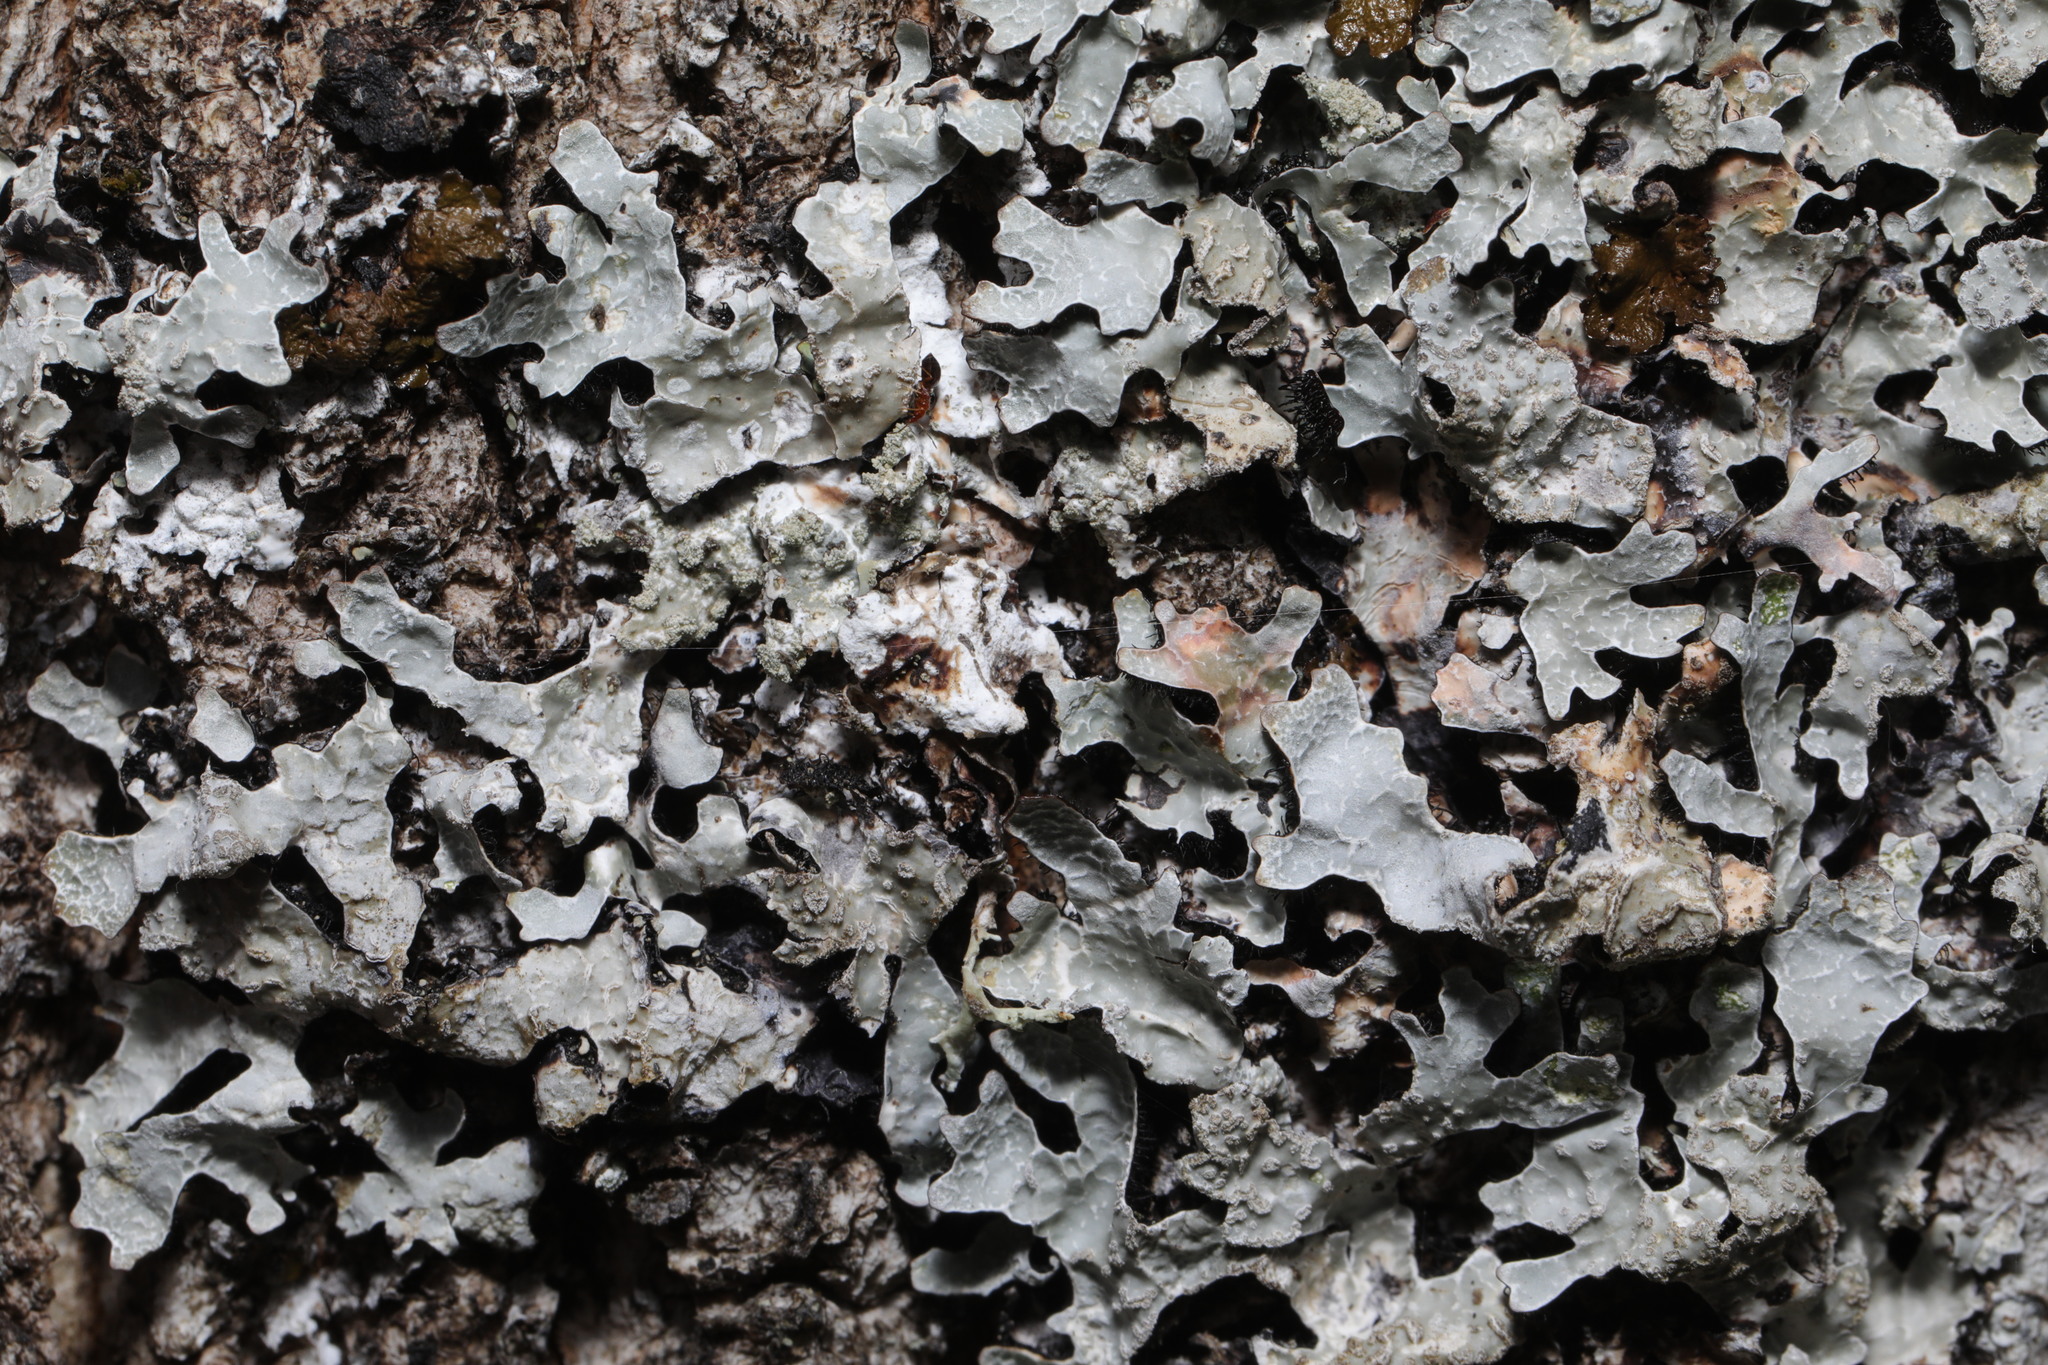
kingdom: Fungi
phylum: Ascomycota
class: Lecanoromycetes
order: Lecanorales
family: Parmeliaceae
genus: Parmelia
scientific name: Parmelia sulcata
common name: Netted shield lichen
